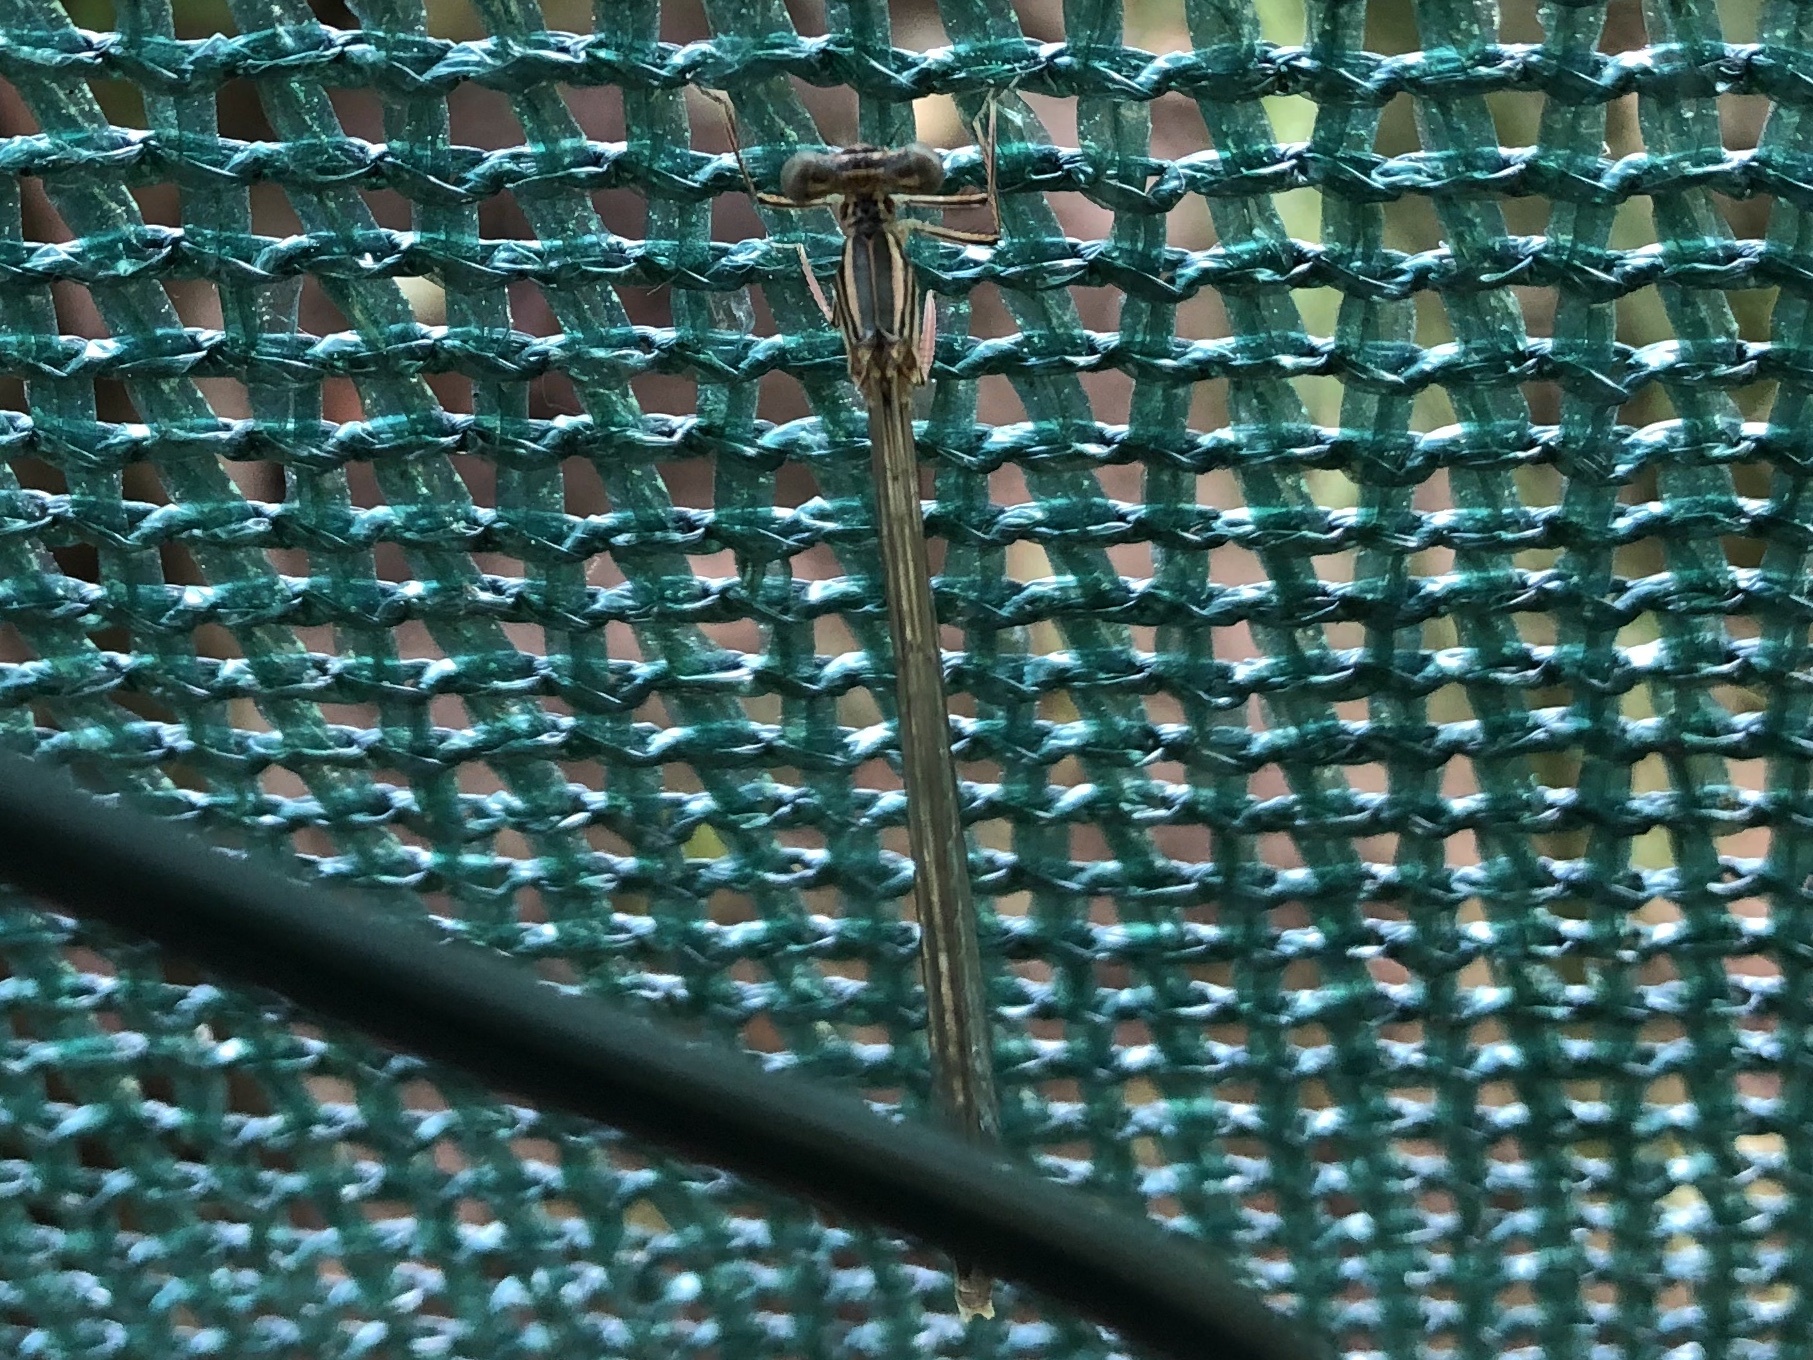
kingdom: Animalia
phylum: Arthropoda
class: Insecta
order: Odonata
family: Platycnemididae
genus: Platycnemis
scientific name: Platycnemis pennipes
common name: White-legged damselfly
